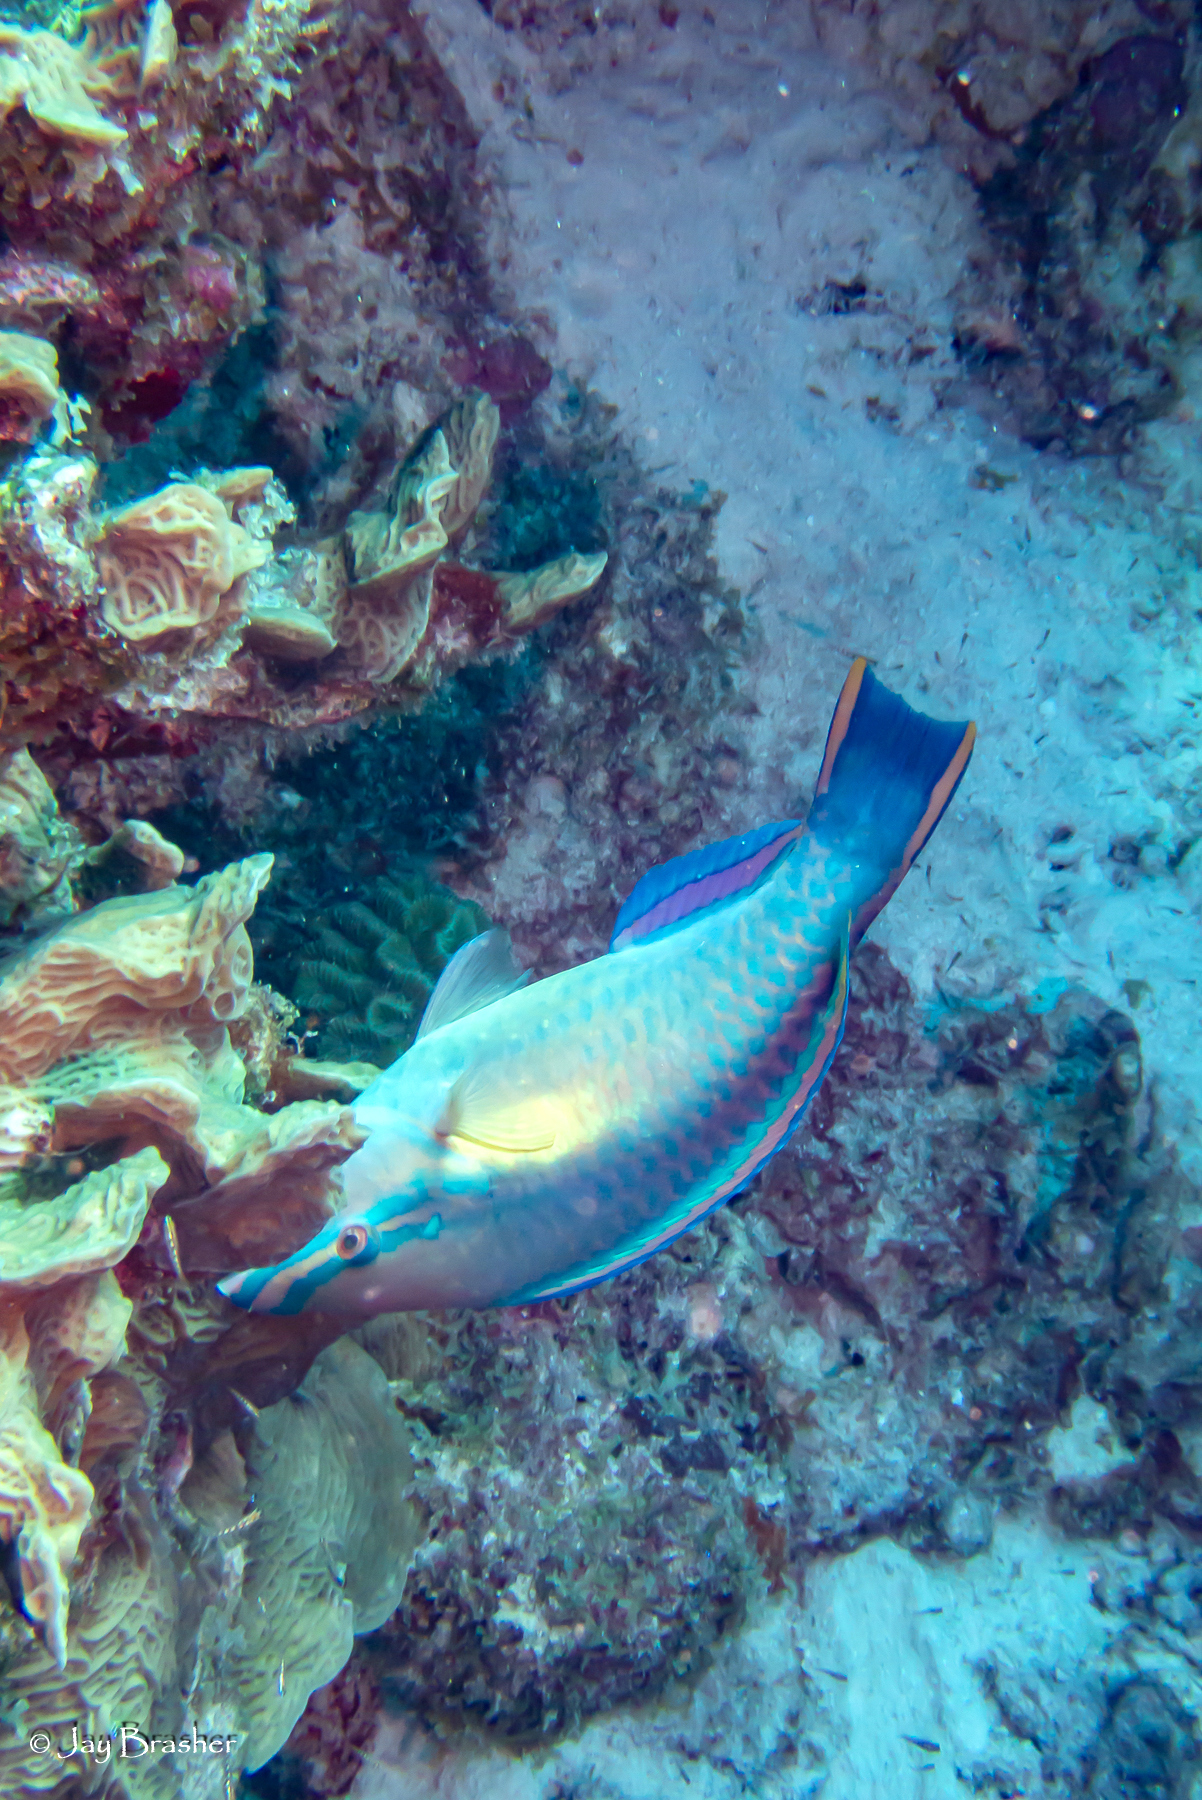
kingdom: Animalia
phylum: Chordata
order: Perciformes
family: Scaridae
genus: Scarus
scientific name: Scarus taeniopterus
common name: Princess parrotfish
